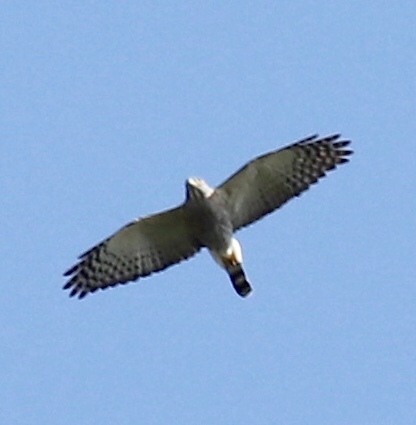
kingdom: Animalia
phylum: Chordata
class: Aves
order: Accipitriformes
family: Accipitridae
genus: Harpagus
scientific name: Harpagus bidentatus
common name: Double-toothed kite
